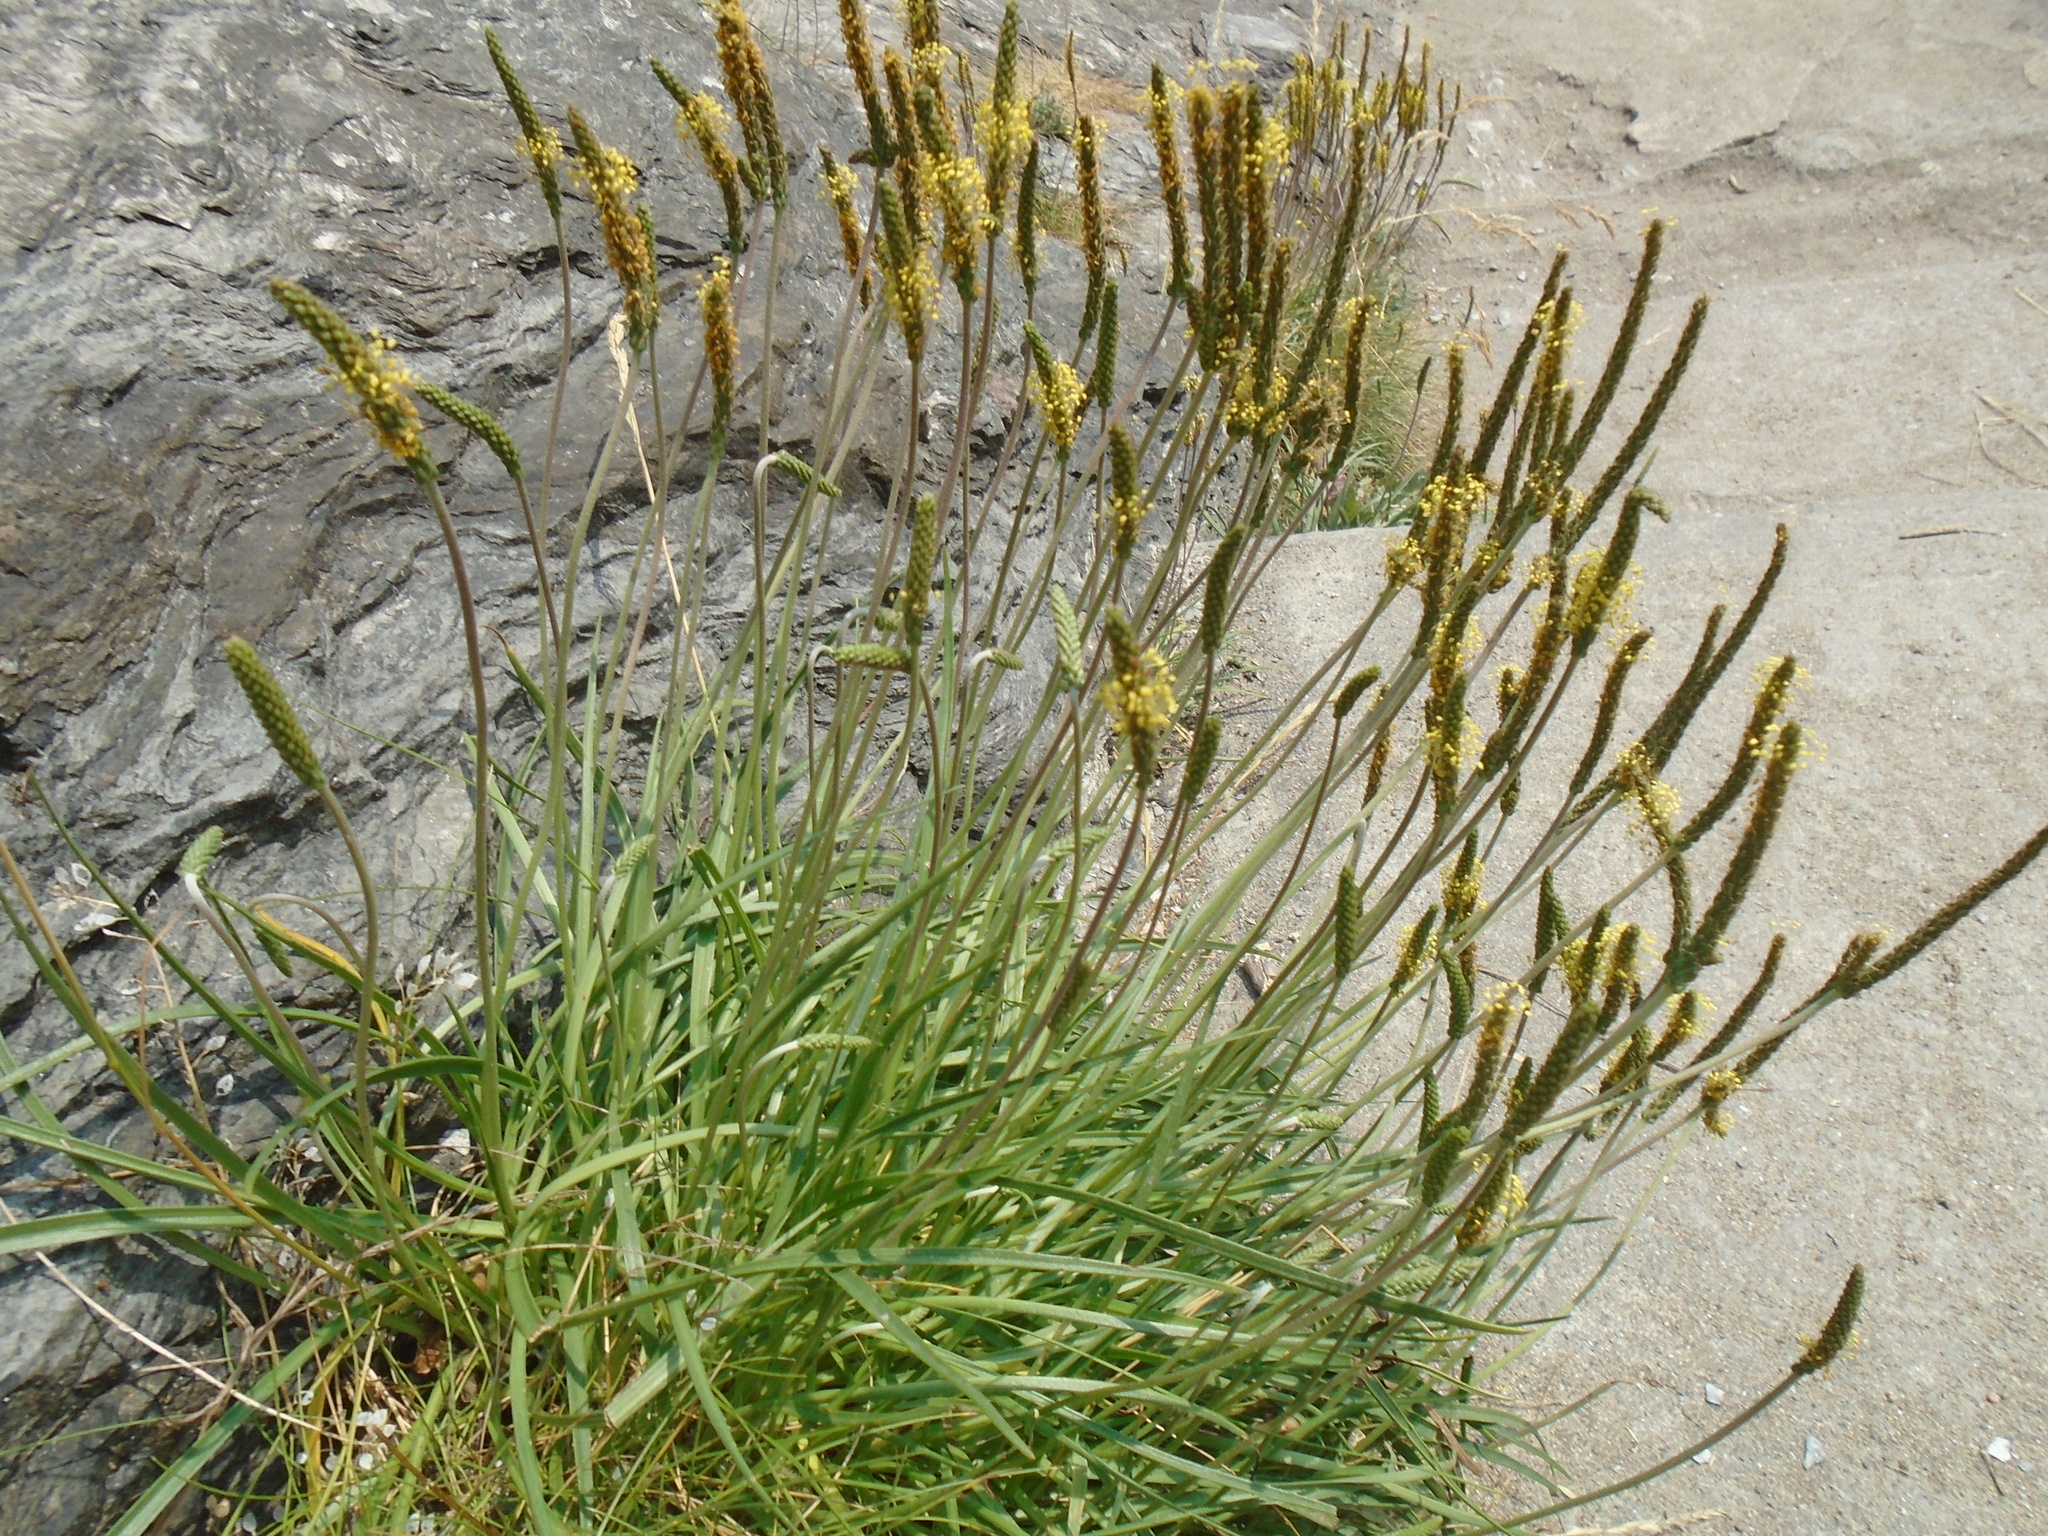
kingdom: Plantae
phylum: Tracheophyta
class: Magnoliopsida
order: Lamiales
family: Plantaginaceae
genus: Plantago
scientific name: Plantago maritima
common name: Sea plantain
